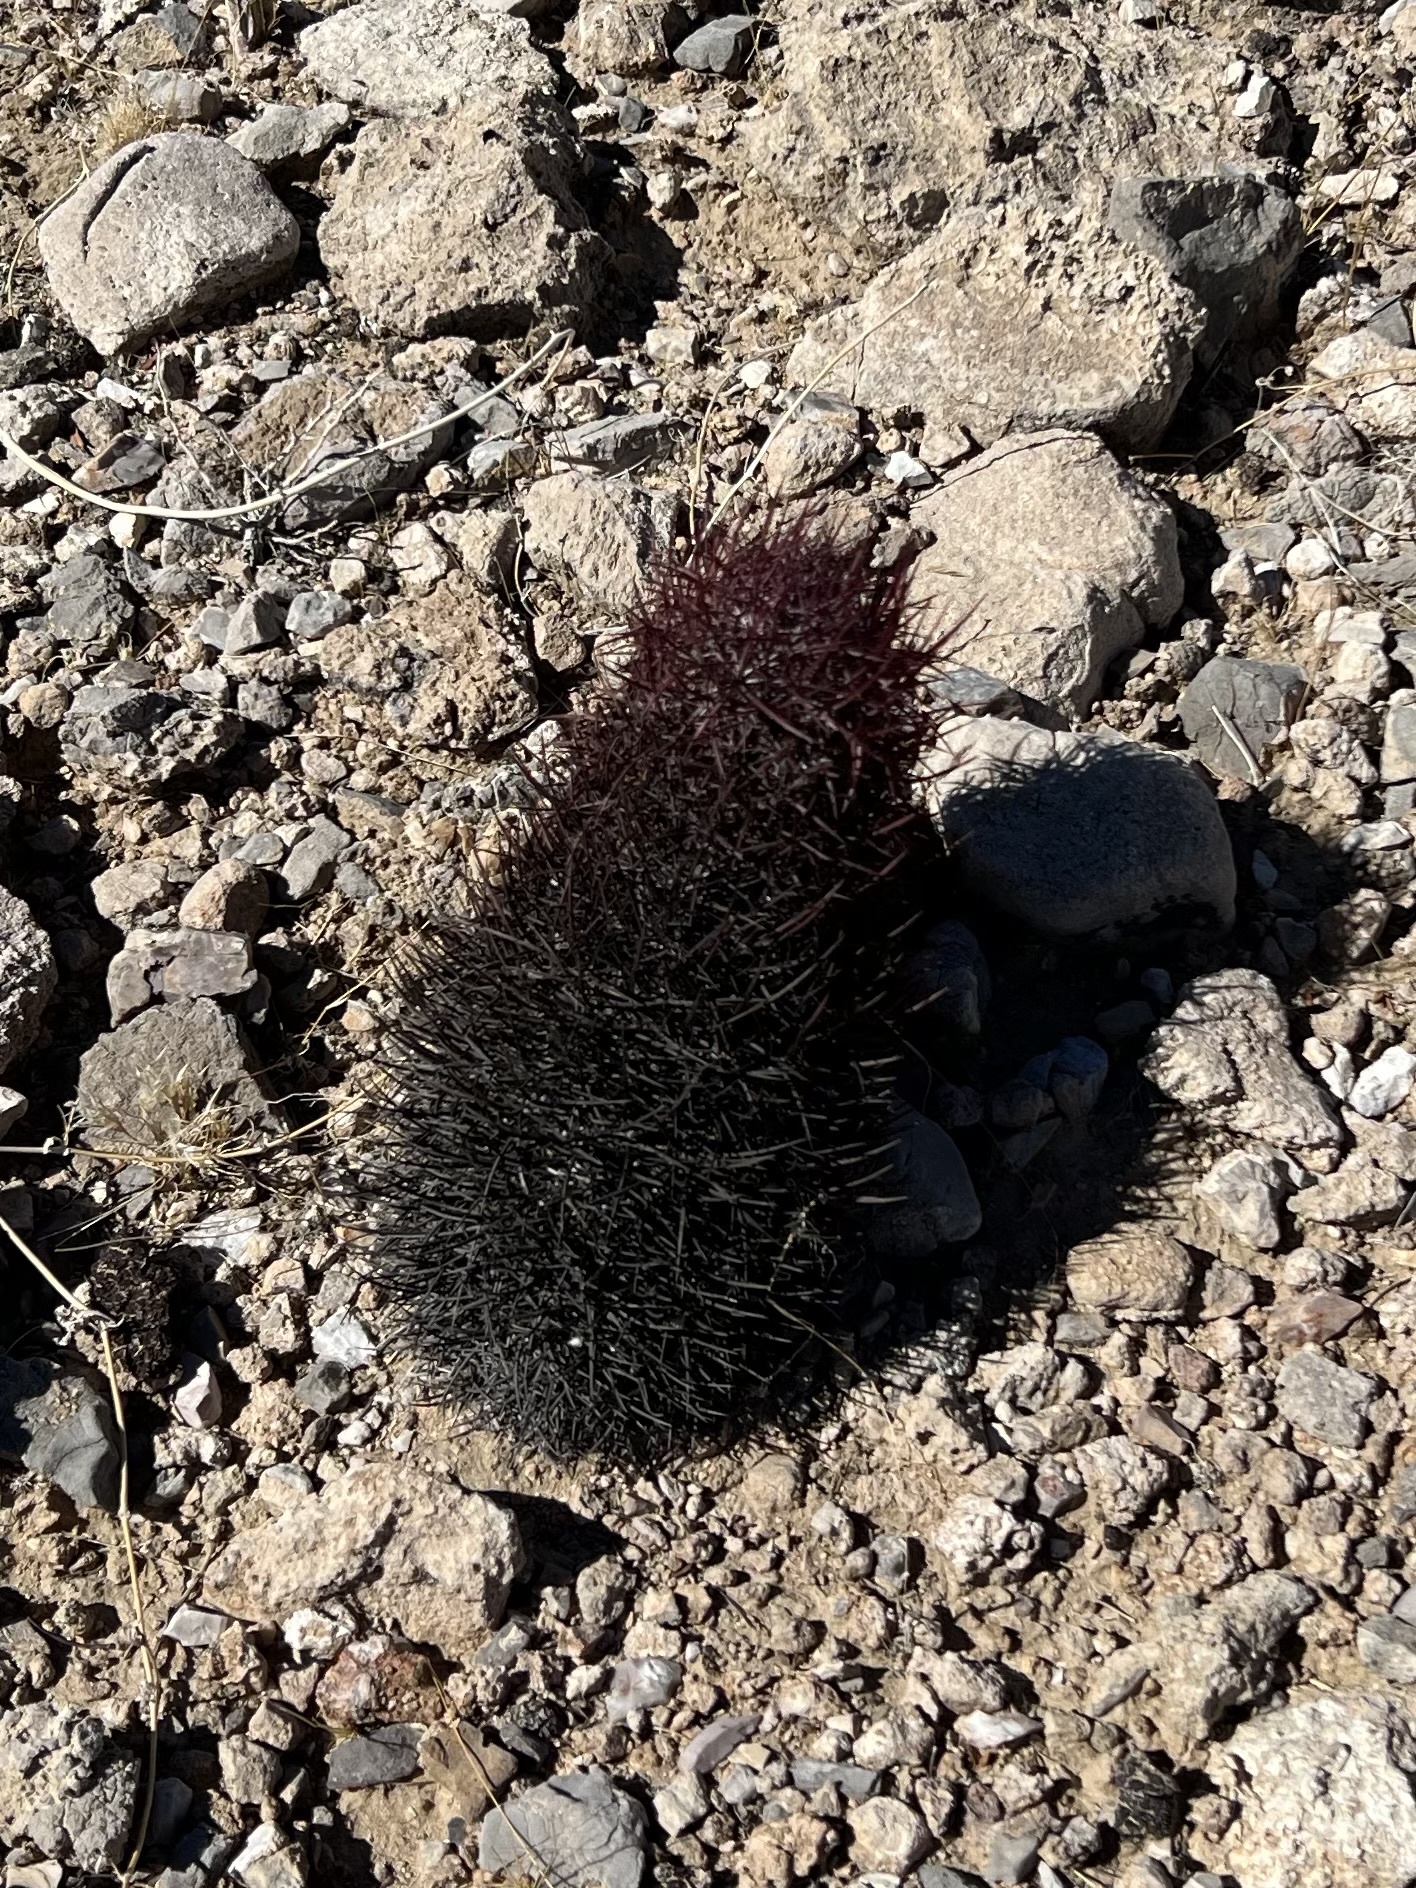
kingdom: Plantae
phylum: Tracheophyta
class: Magnoliopsida
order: Caryophyllales
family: Cactaceae
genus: Sclerocactus
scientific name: Sclerocactus johnsonii
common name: Eight-spine fishhook cactus
